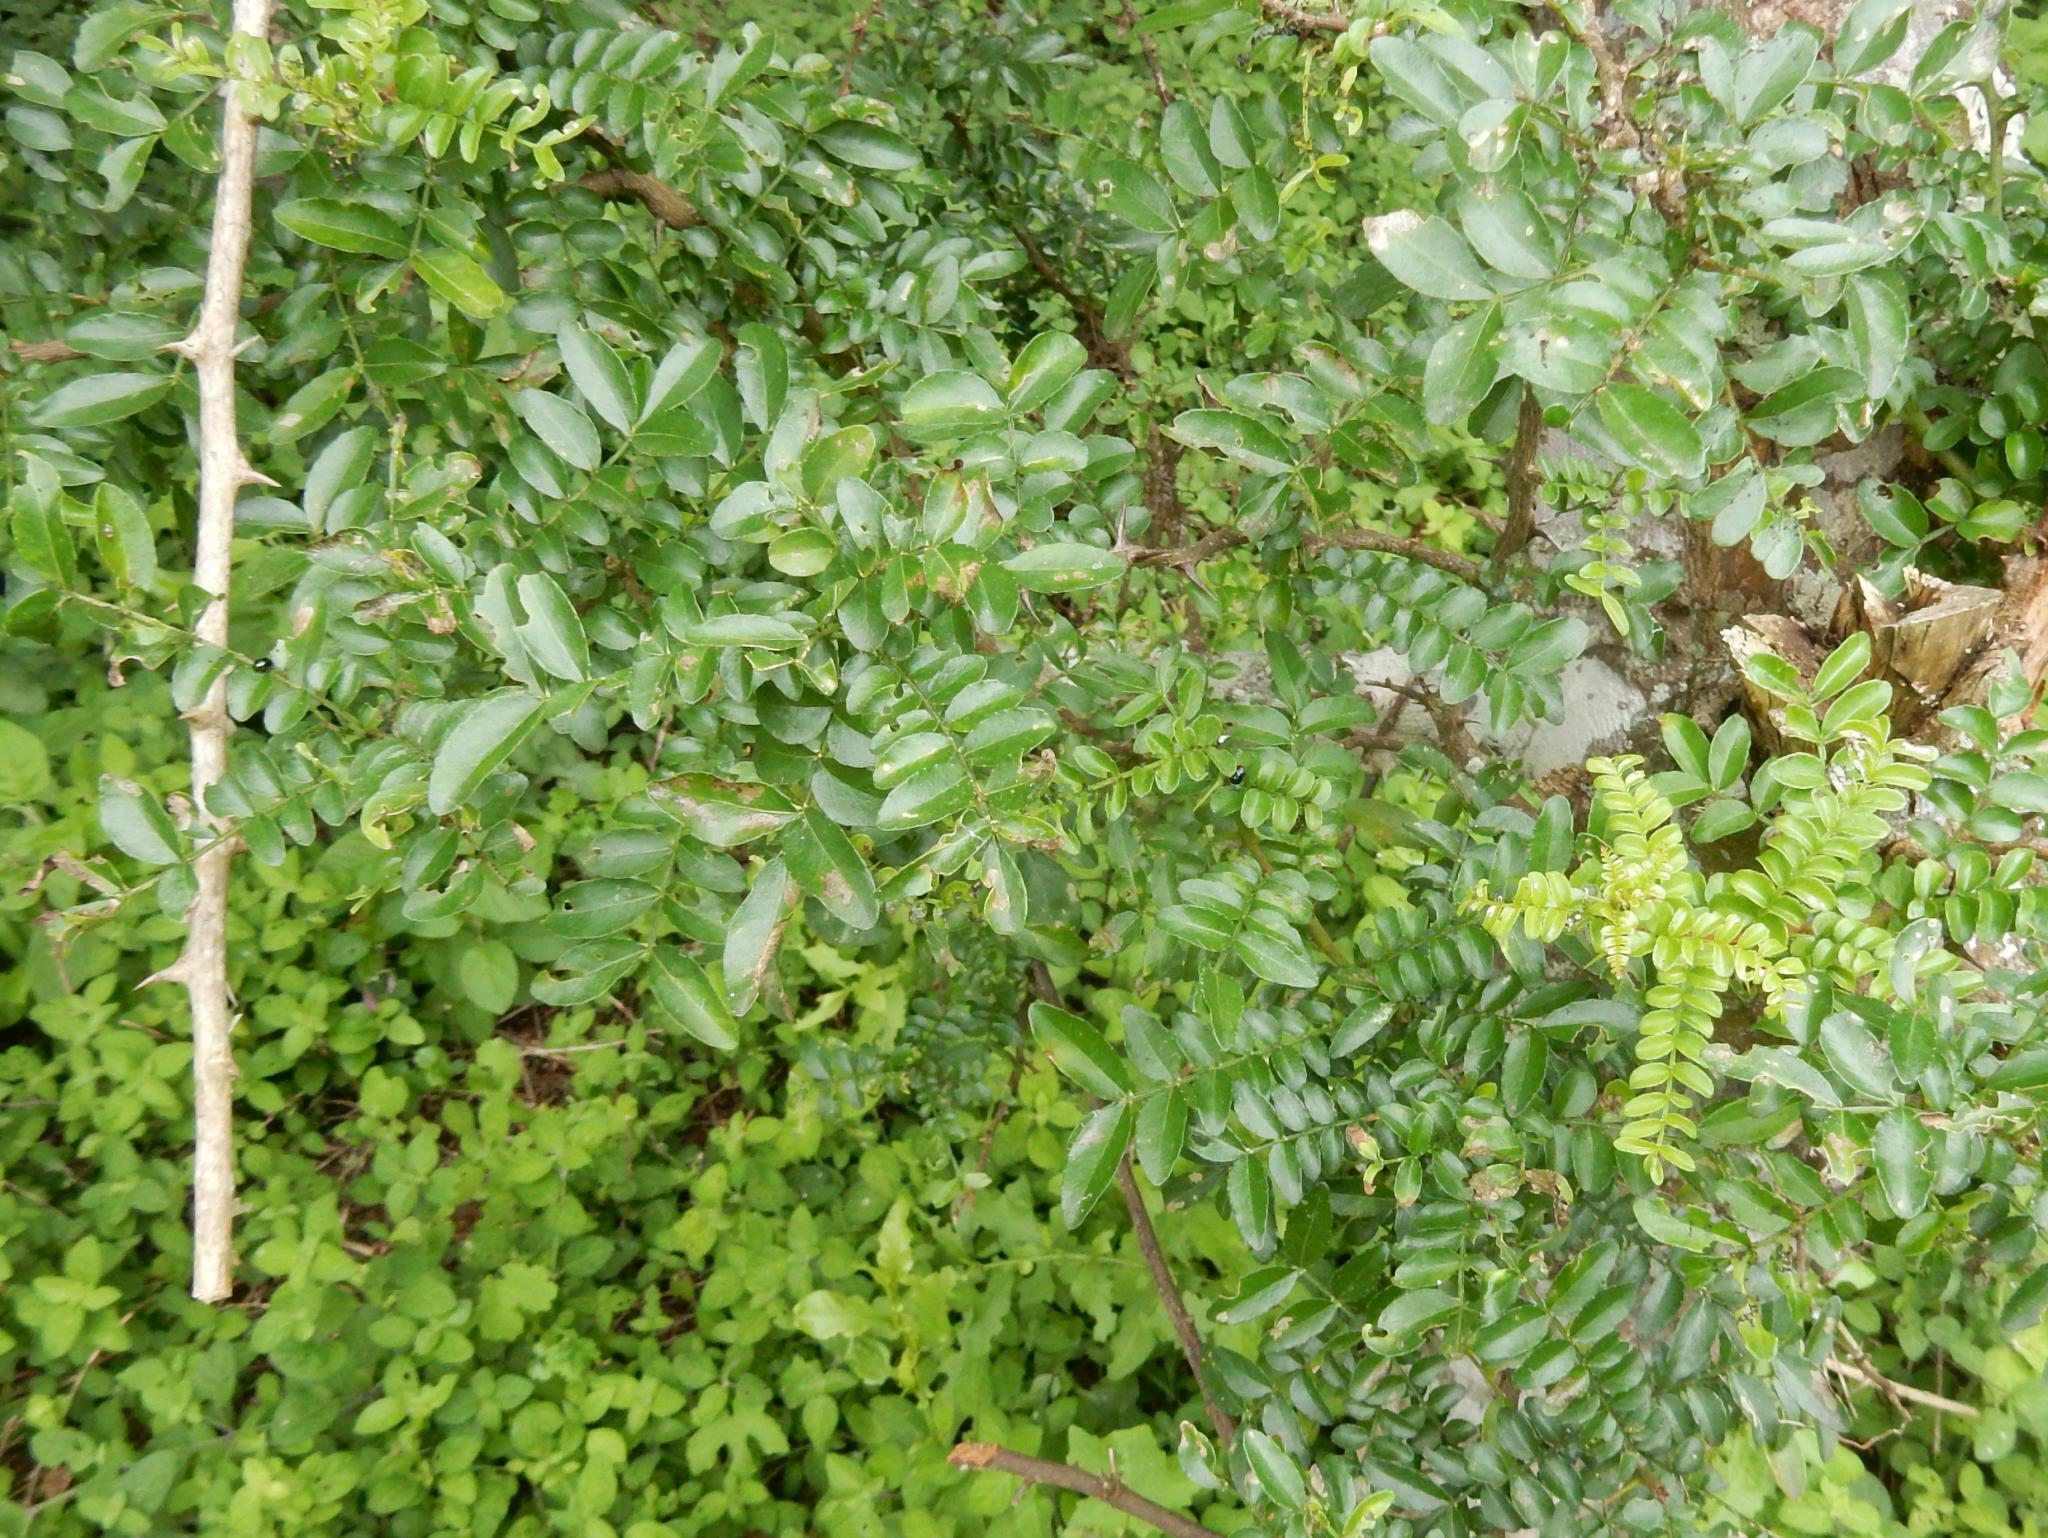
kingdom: Plantae
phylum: Tracheophyta
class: Magnoliopsida
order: Sapindales
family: Rutaceae
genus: Zanthoxylum
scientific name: Zanthoxylum capense
